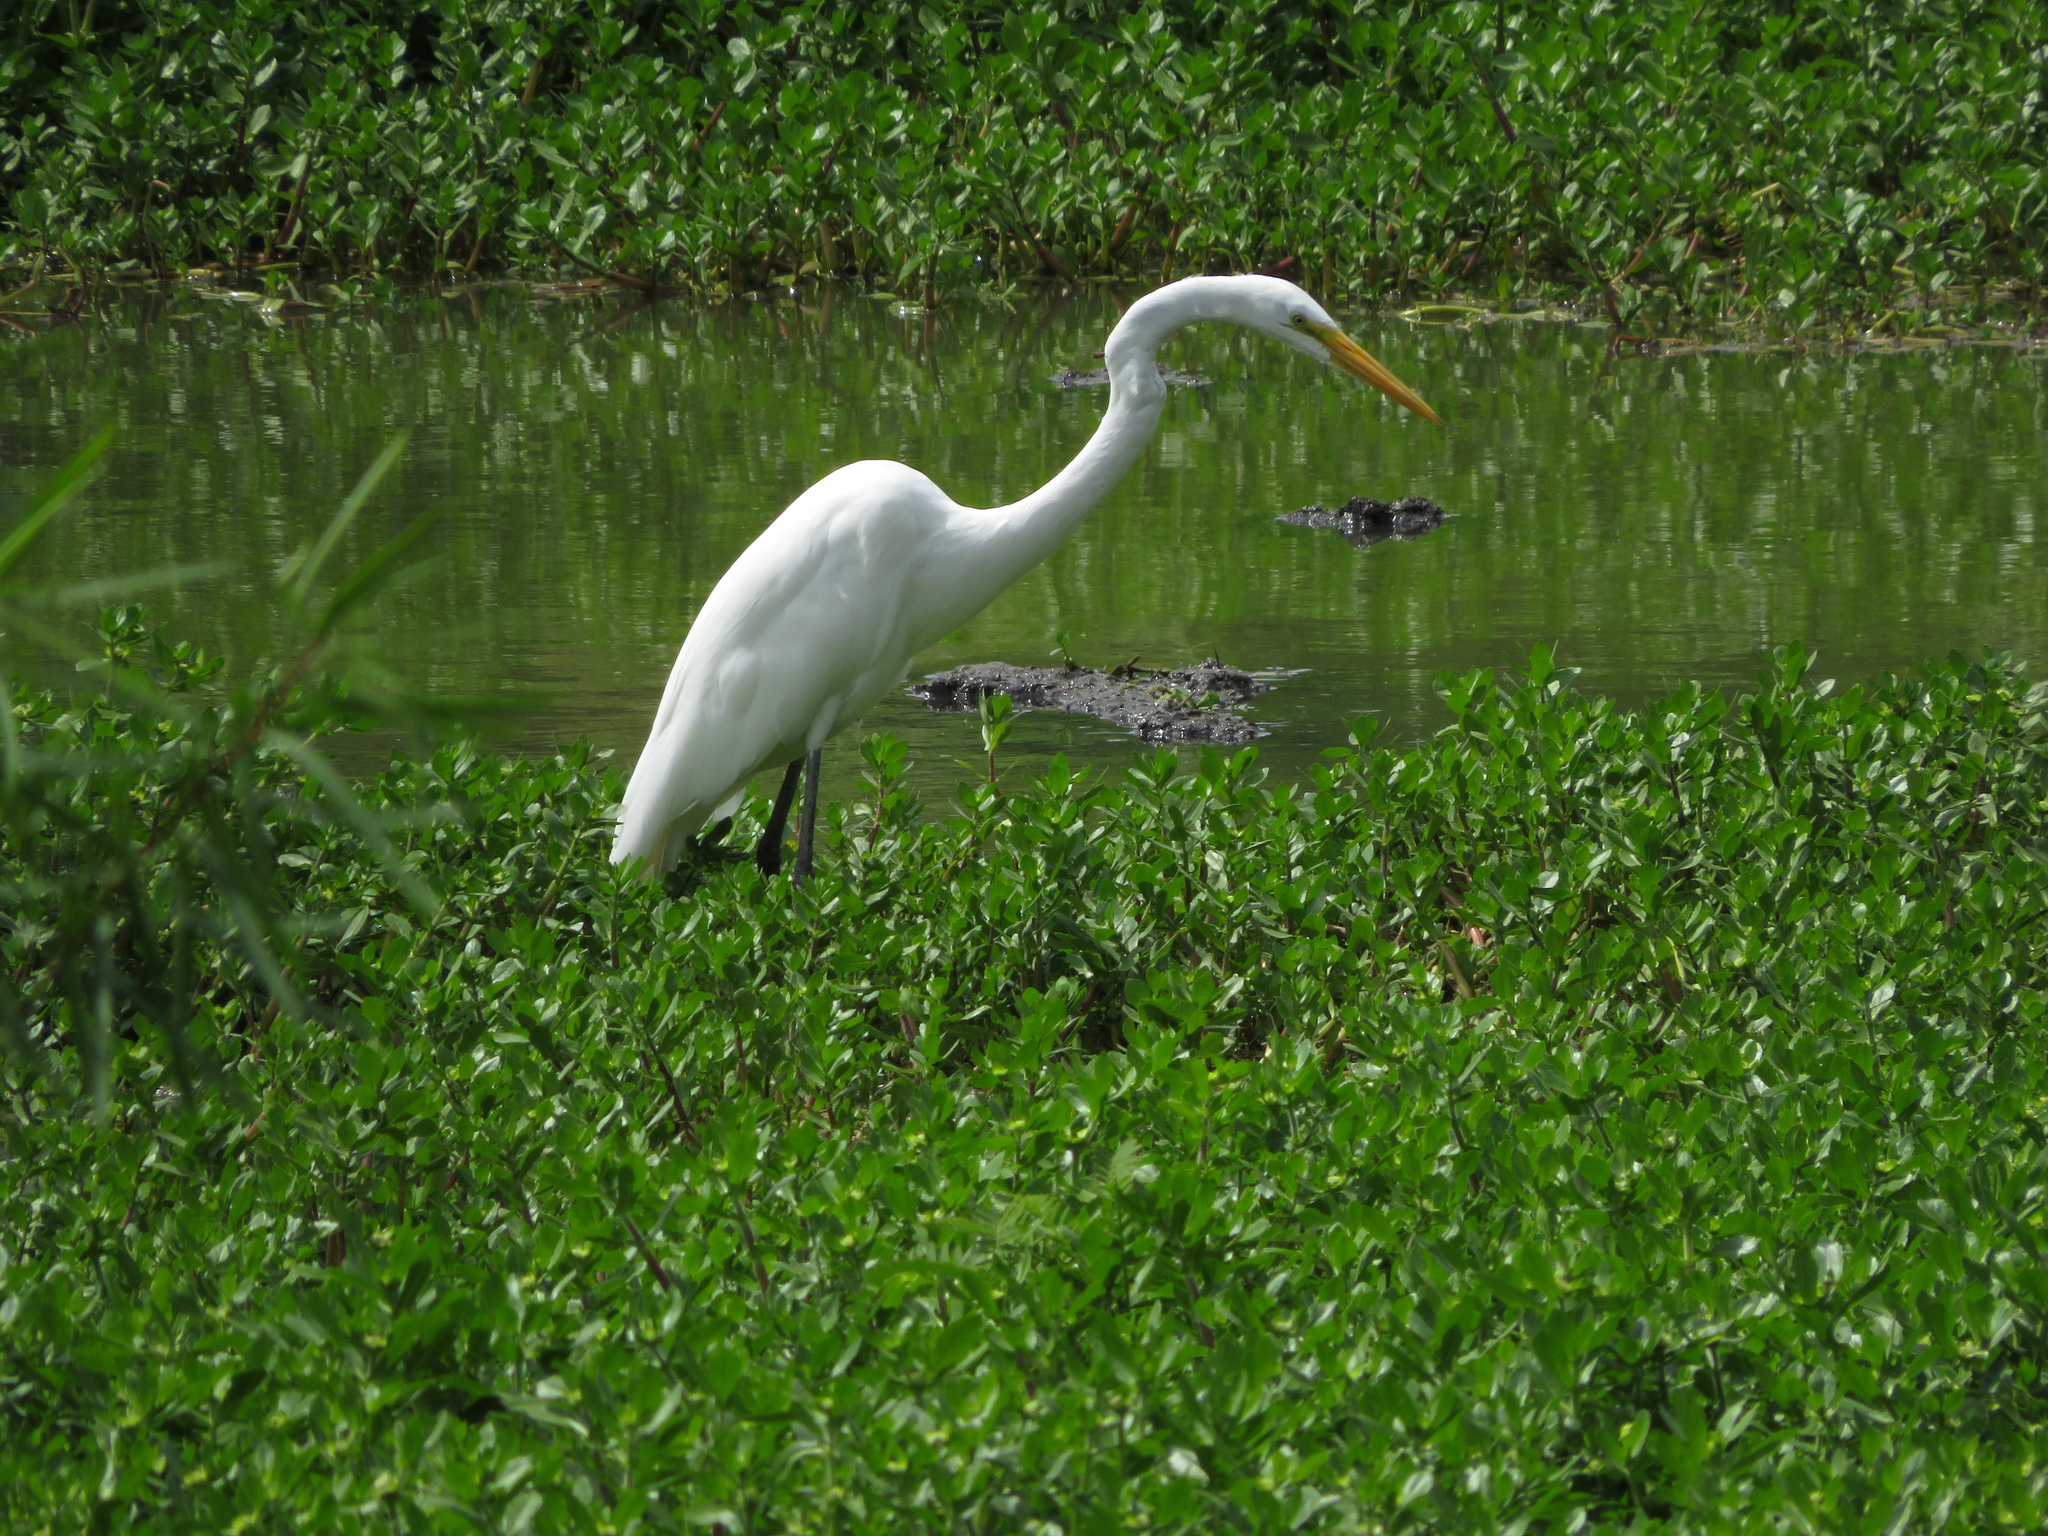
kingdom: Animalia
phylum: Chordata
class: Aves
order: Pelecaniformes
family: Ardeidae
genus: Ardea
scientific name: Ardea alba
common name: Great egret
